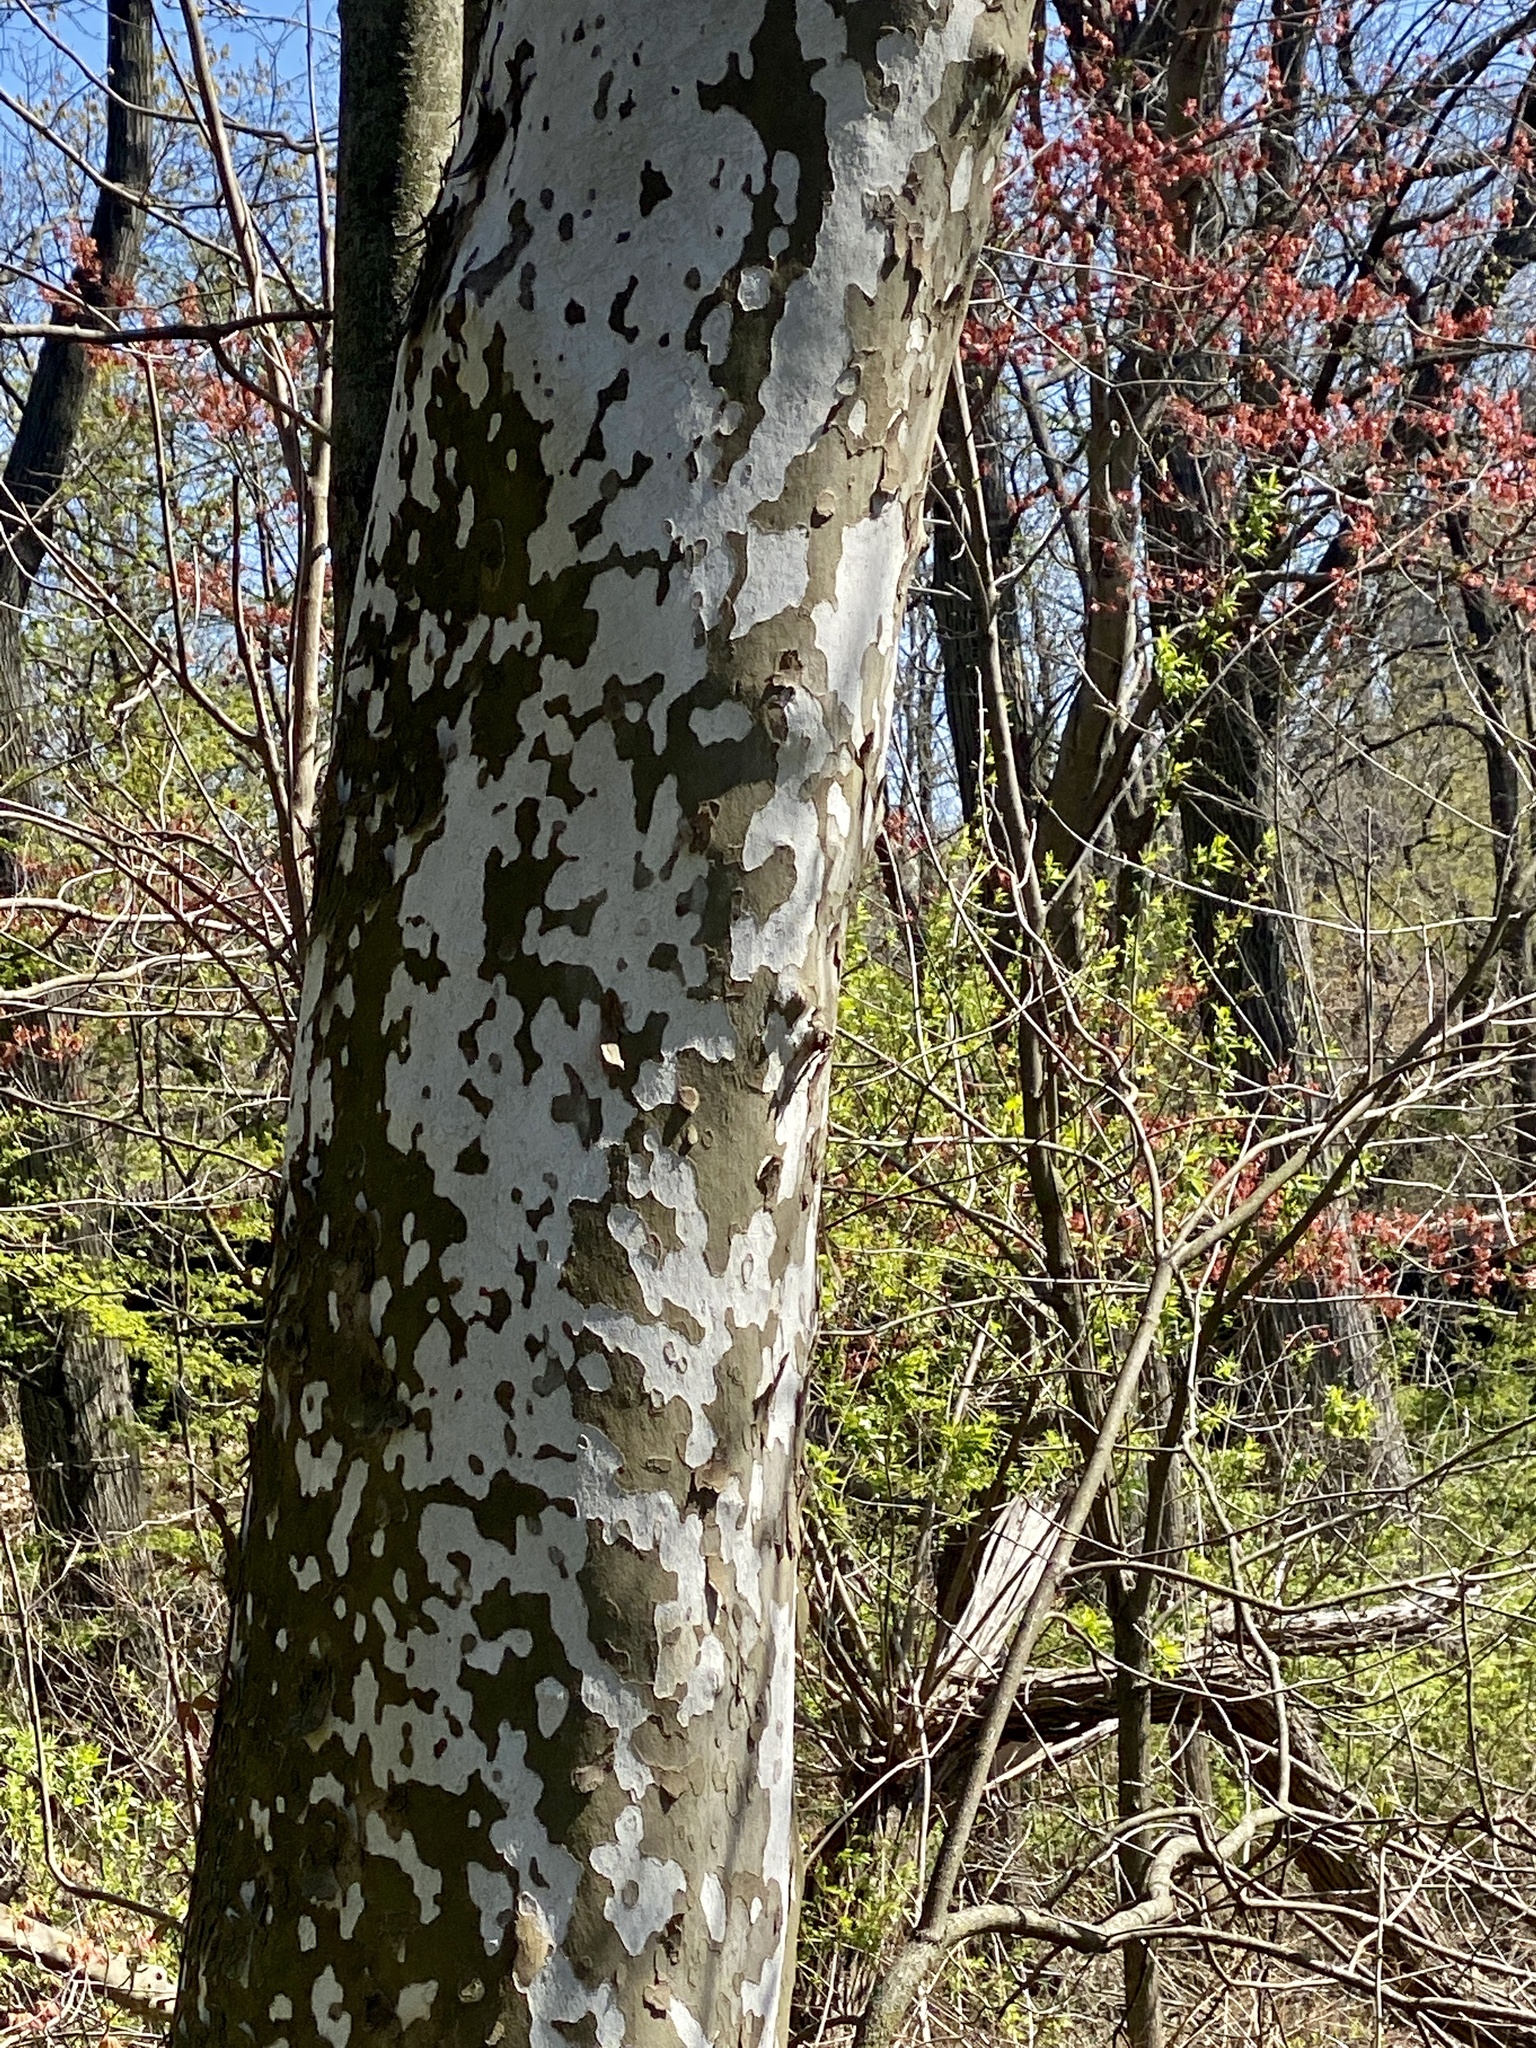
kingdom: Plantae
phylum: Tracheophyta
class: Magnoliopsida
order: Proteales
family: Platanaceae
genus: Platanus
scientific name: Platanus occidentalis
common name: American sycamore
